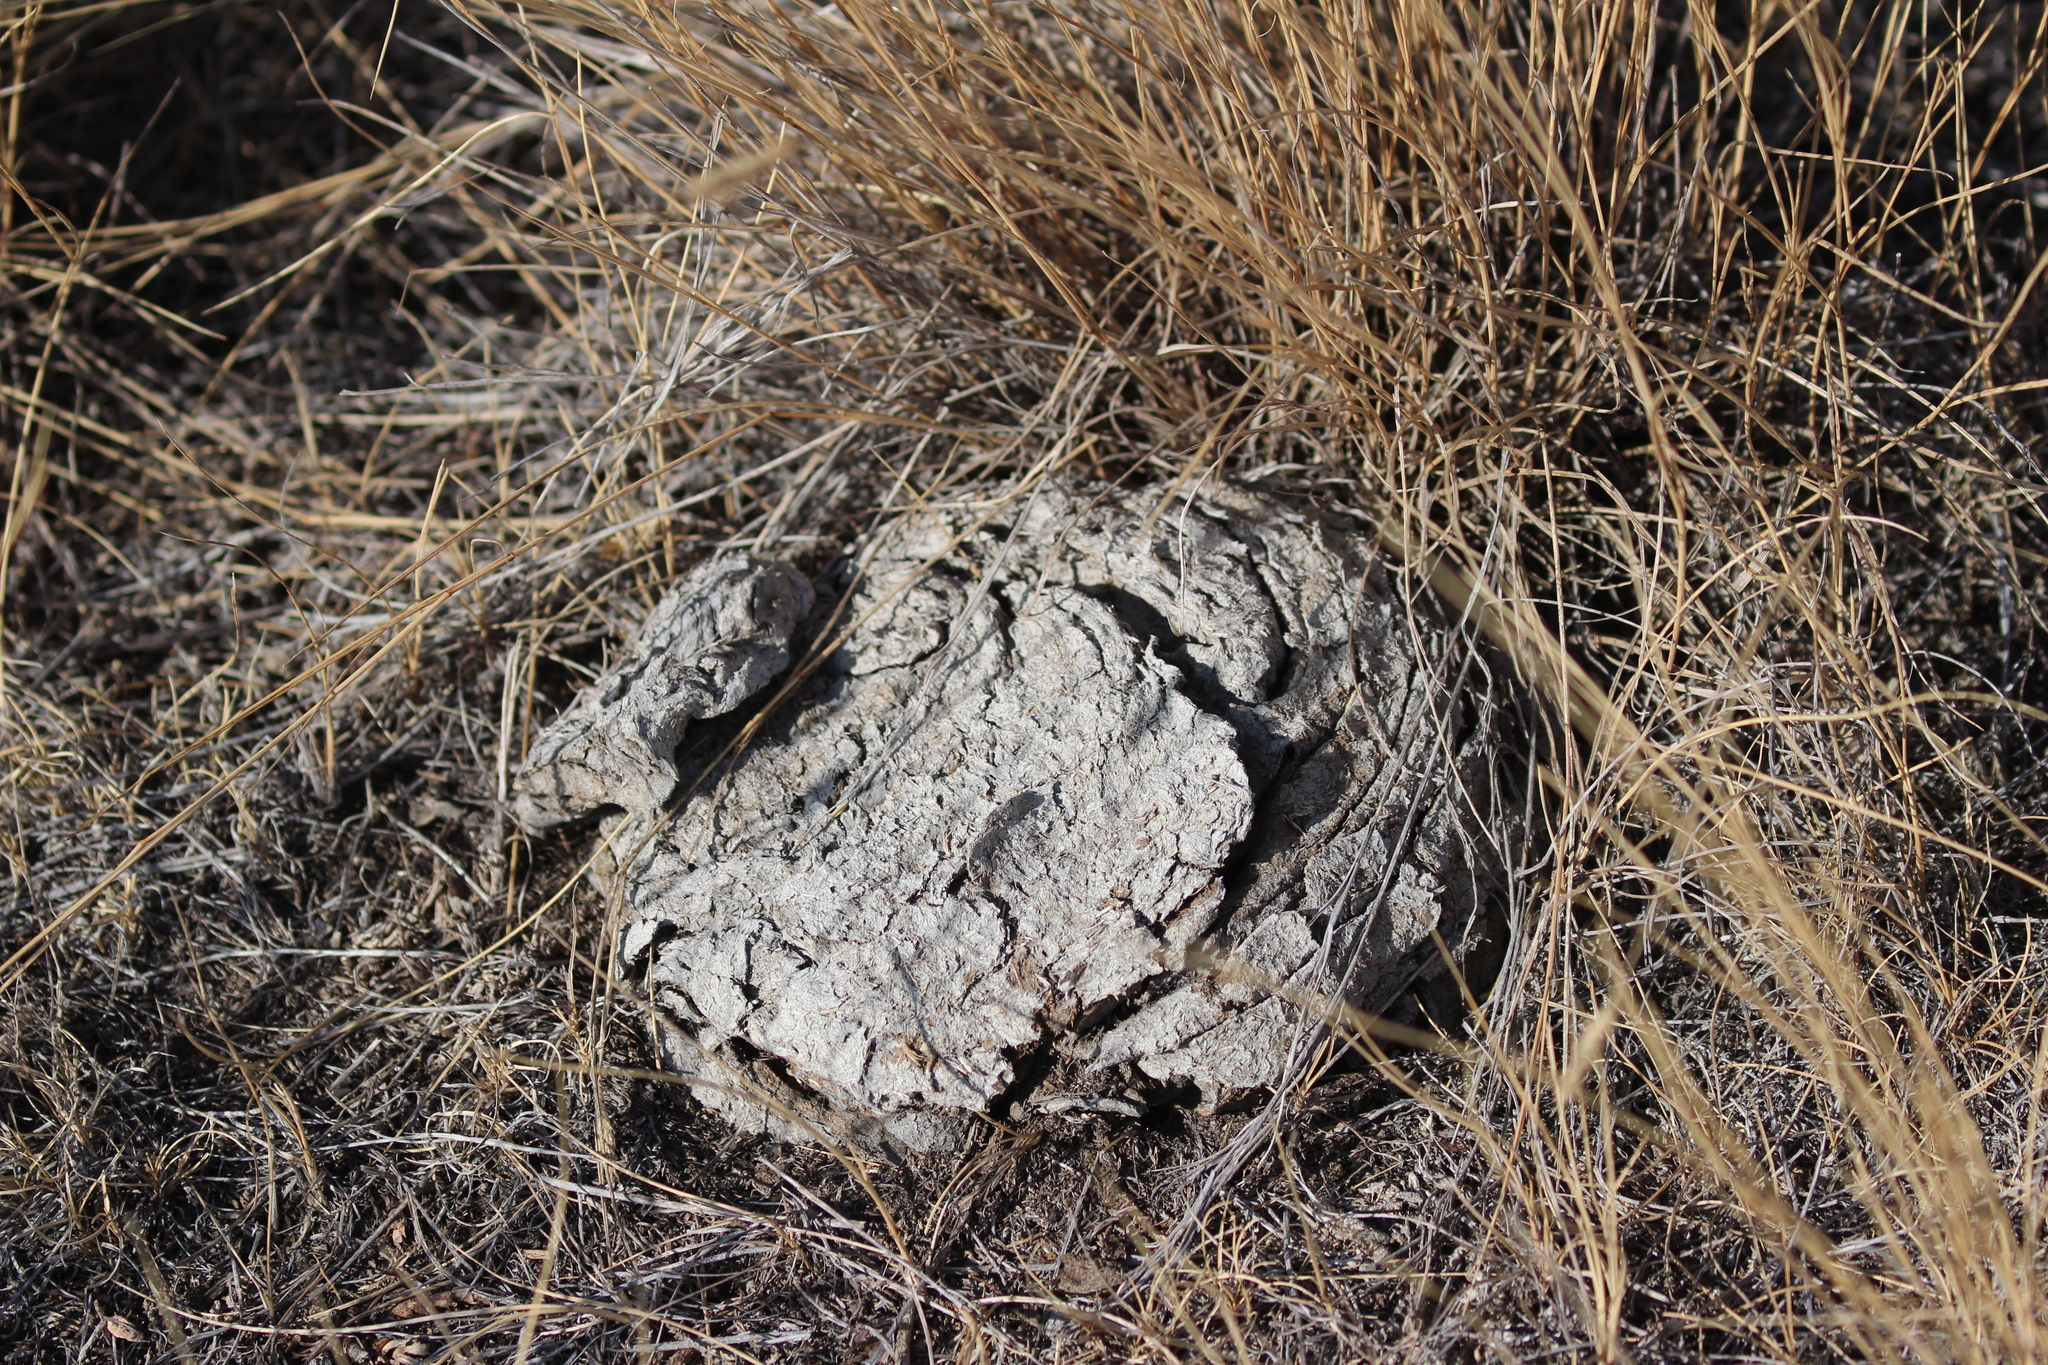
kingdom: Animalia
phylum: Chordata
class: Mammalia
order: Artiodactyla
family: Bovidae
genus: Bison
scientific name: Bison bison
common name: American bison
